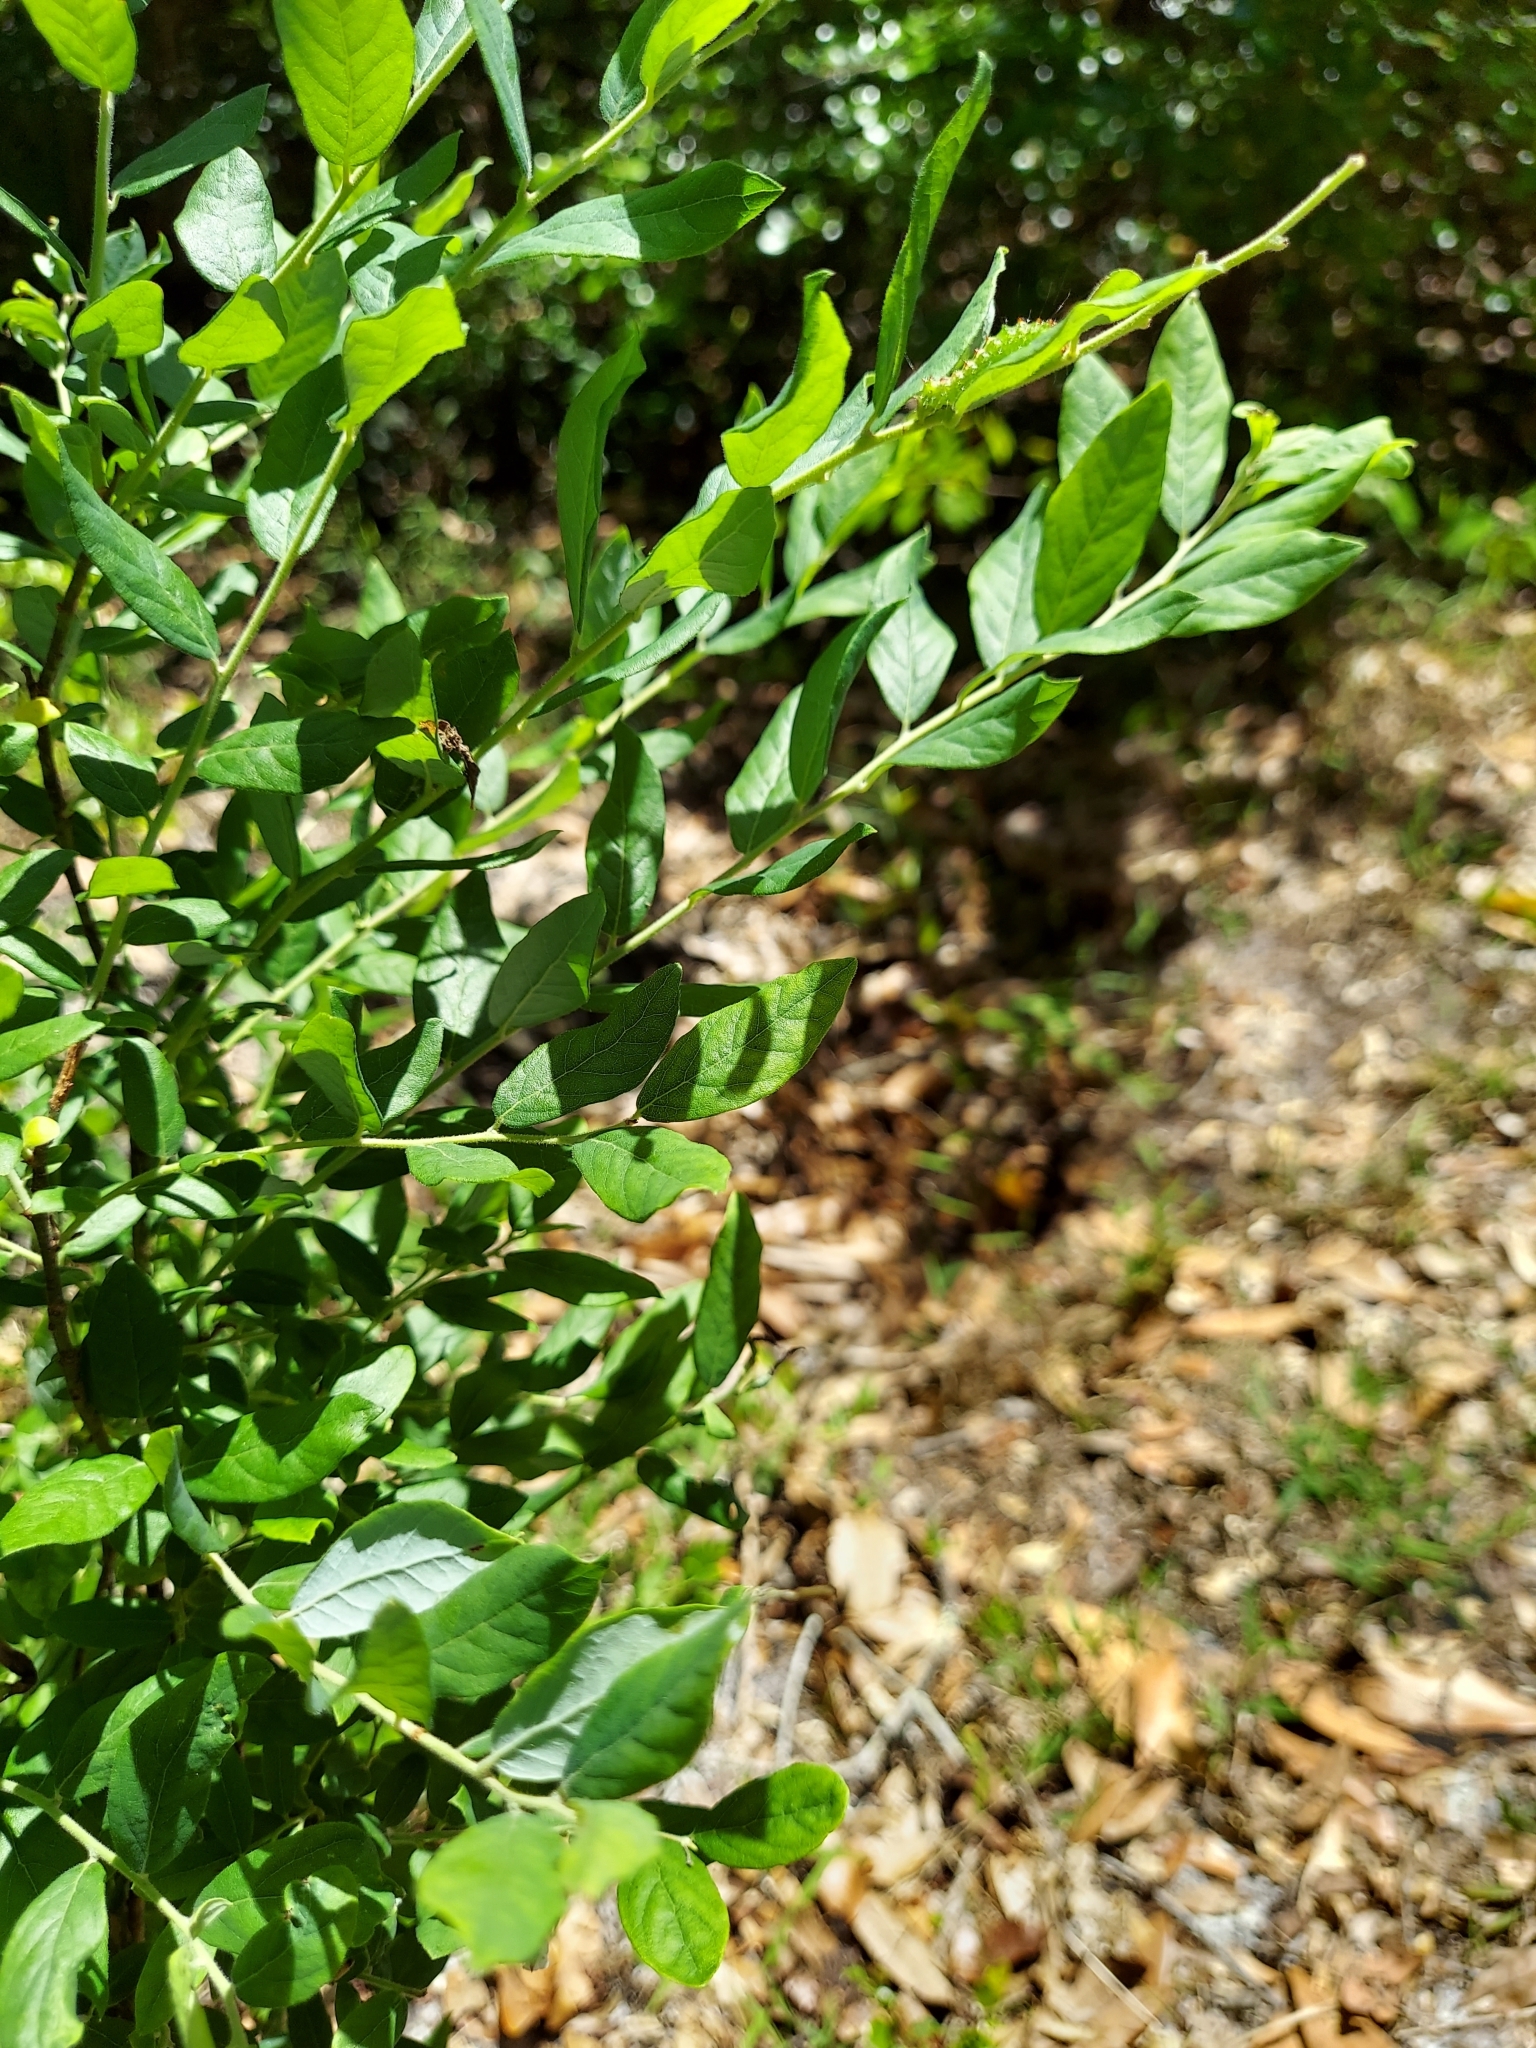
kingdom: Animalia
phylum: Arthropoda
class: Insecta
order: Lepidoptera
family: Noctuidae
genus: Acronicta
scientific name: Acronicta
